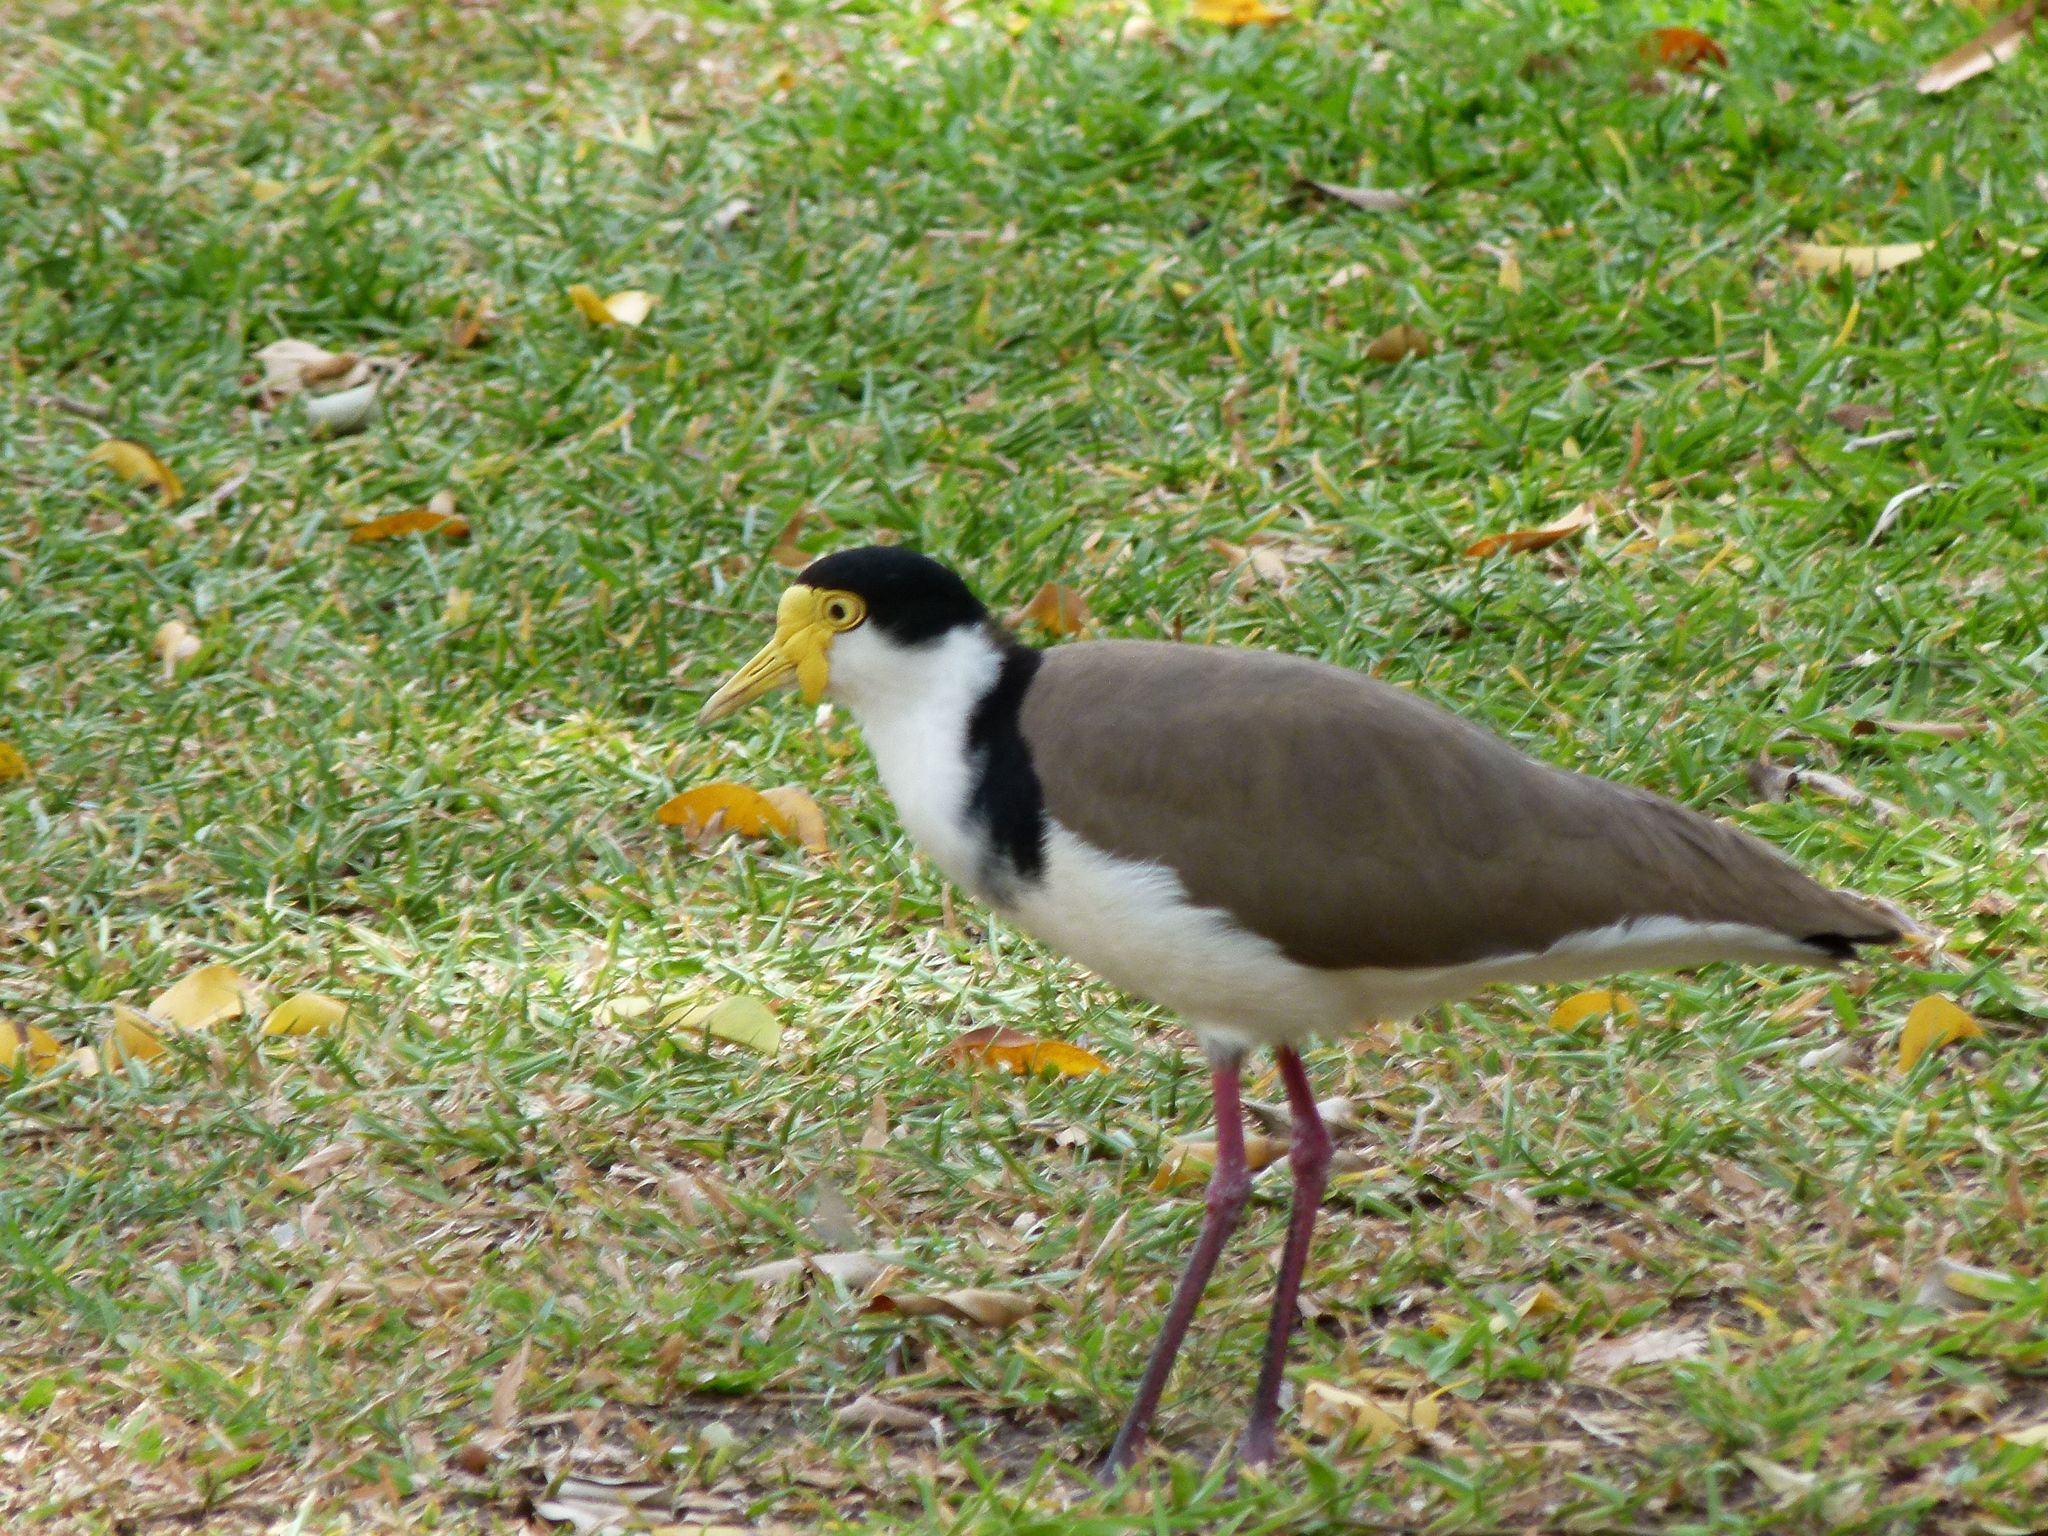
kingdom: Animalia
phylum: Chordata
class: Aves
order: Charadriiformes
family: Charadriidae
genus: Vanellus
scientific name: Vanellus miles
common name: Masked lapwing
